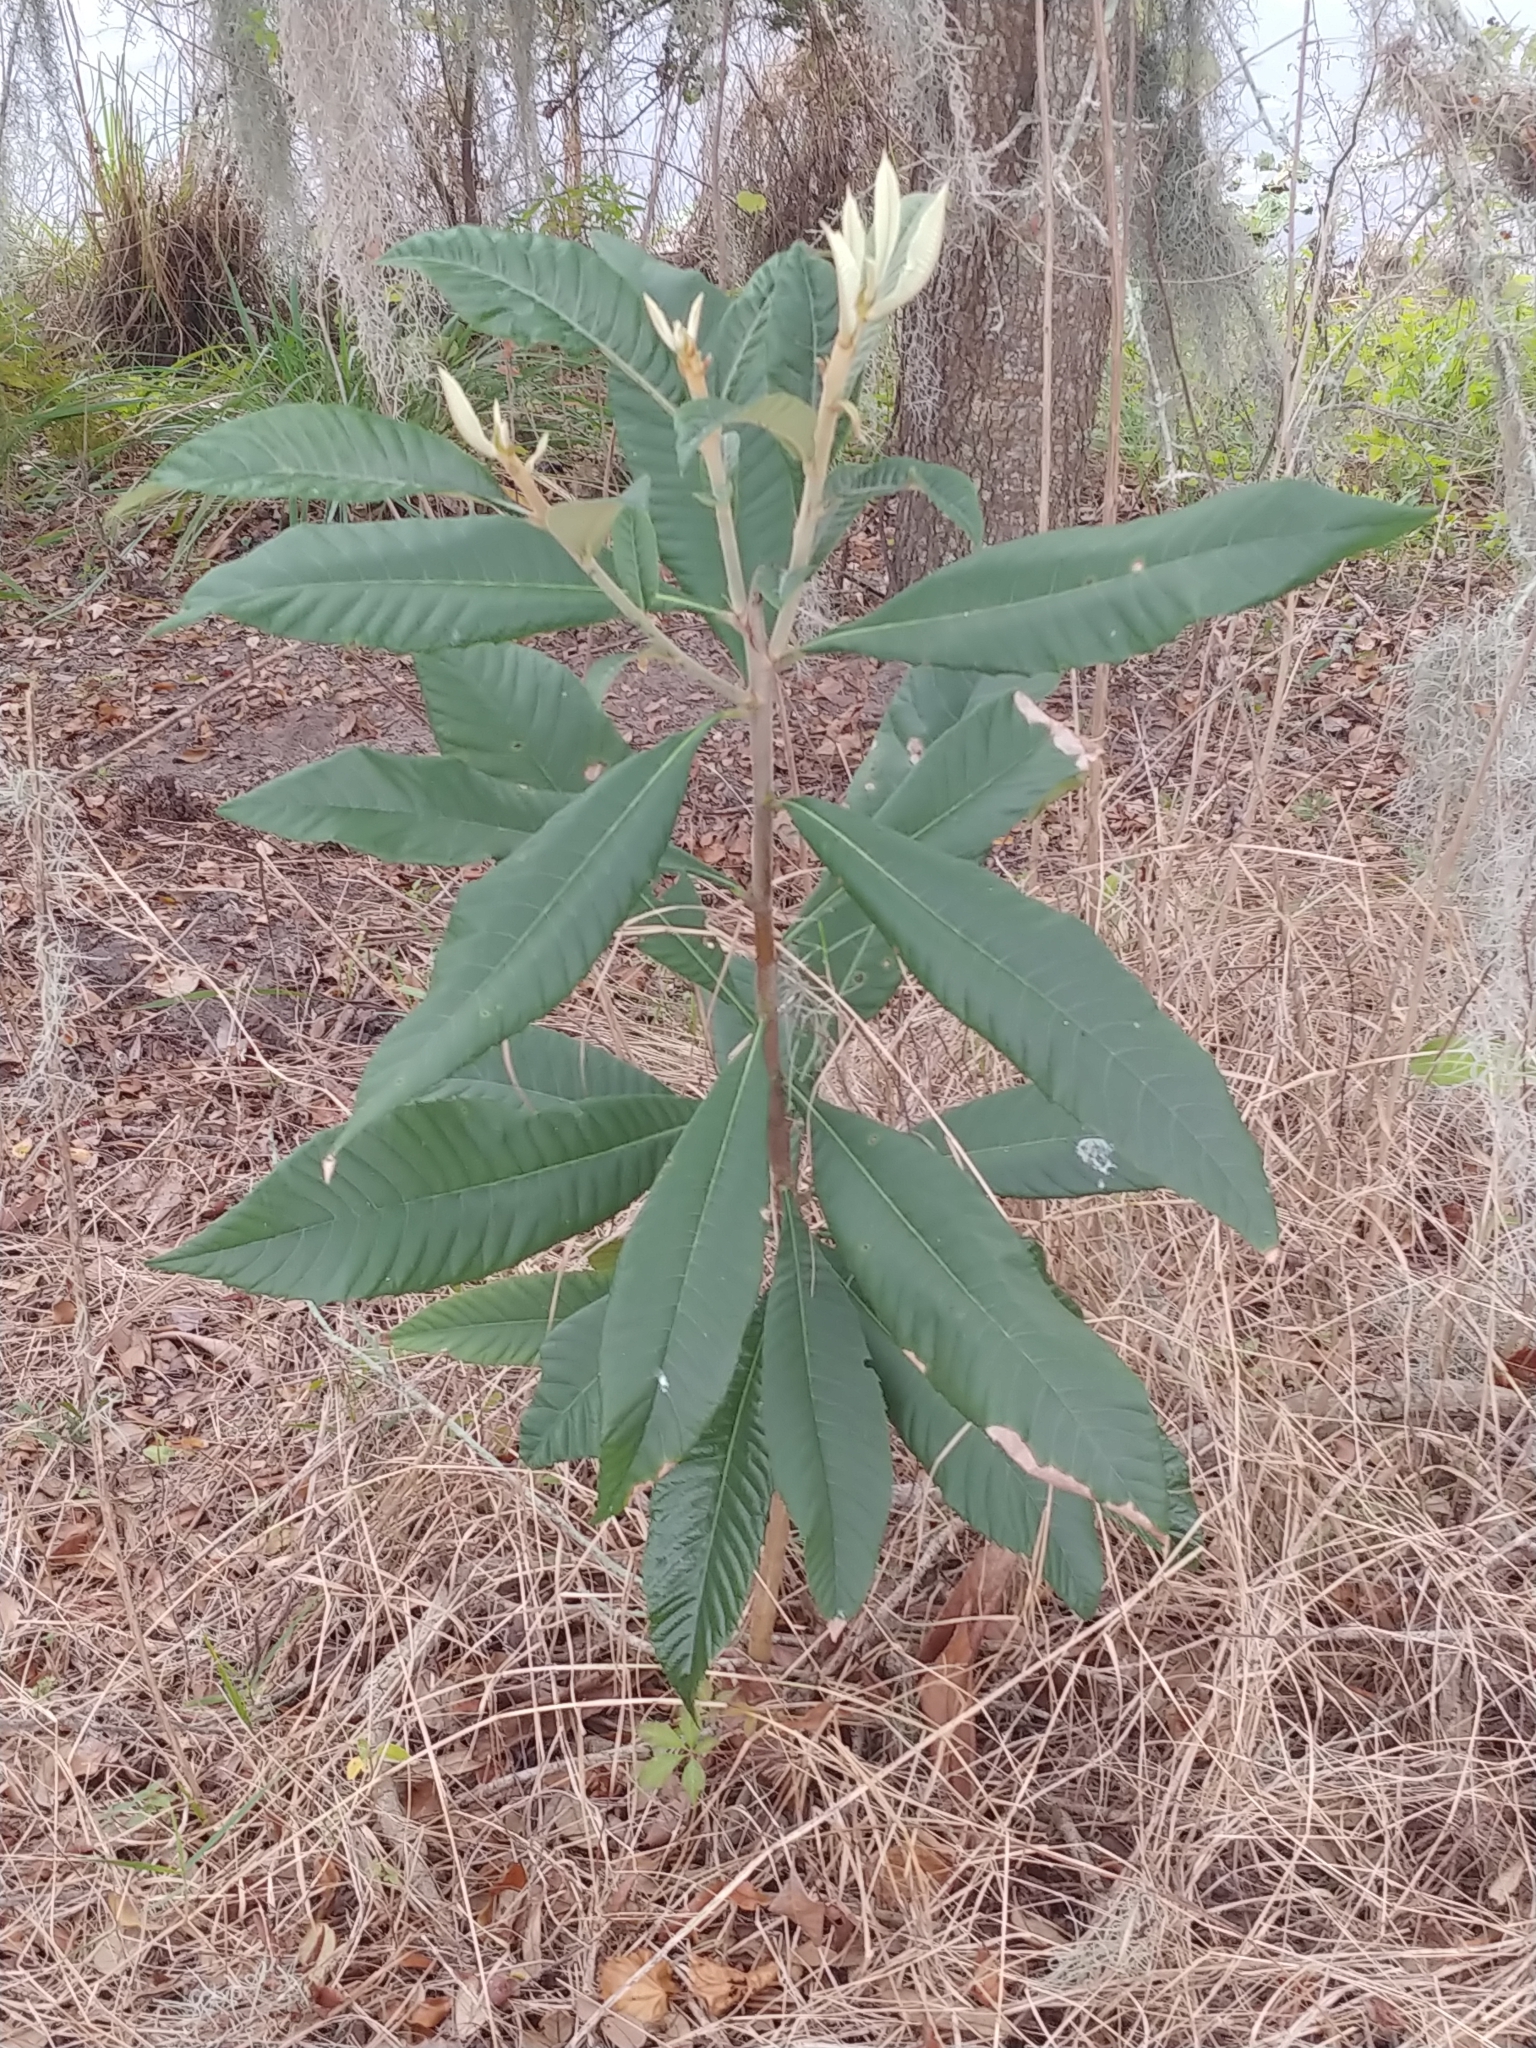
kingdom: Plantae
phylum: Tracheophyta
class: Magnoliopsida
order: Rosales
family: Rosaceae
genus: Rhaphiolepis
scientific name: Rhaphiolepis bibas
